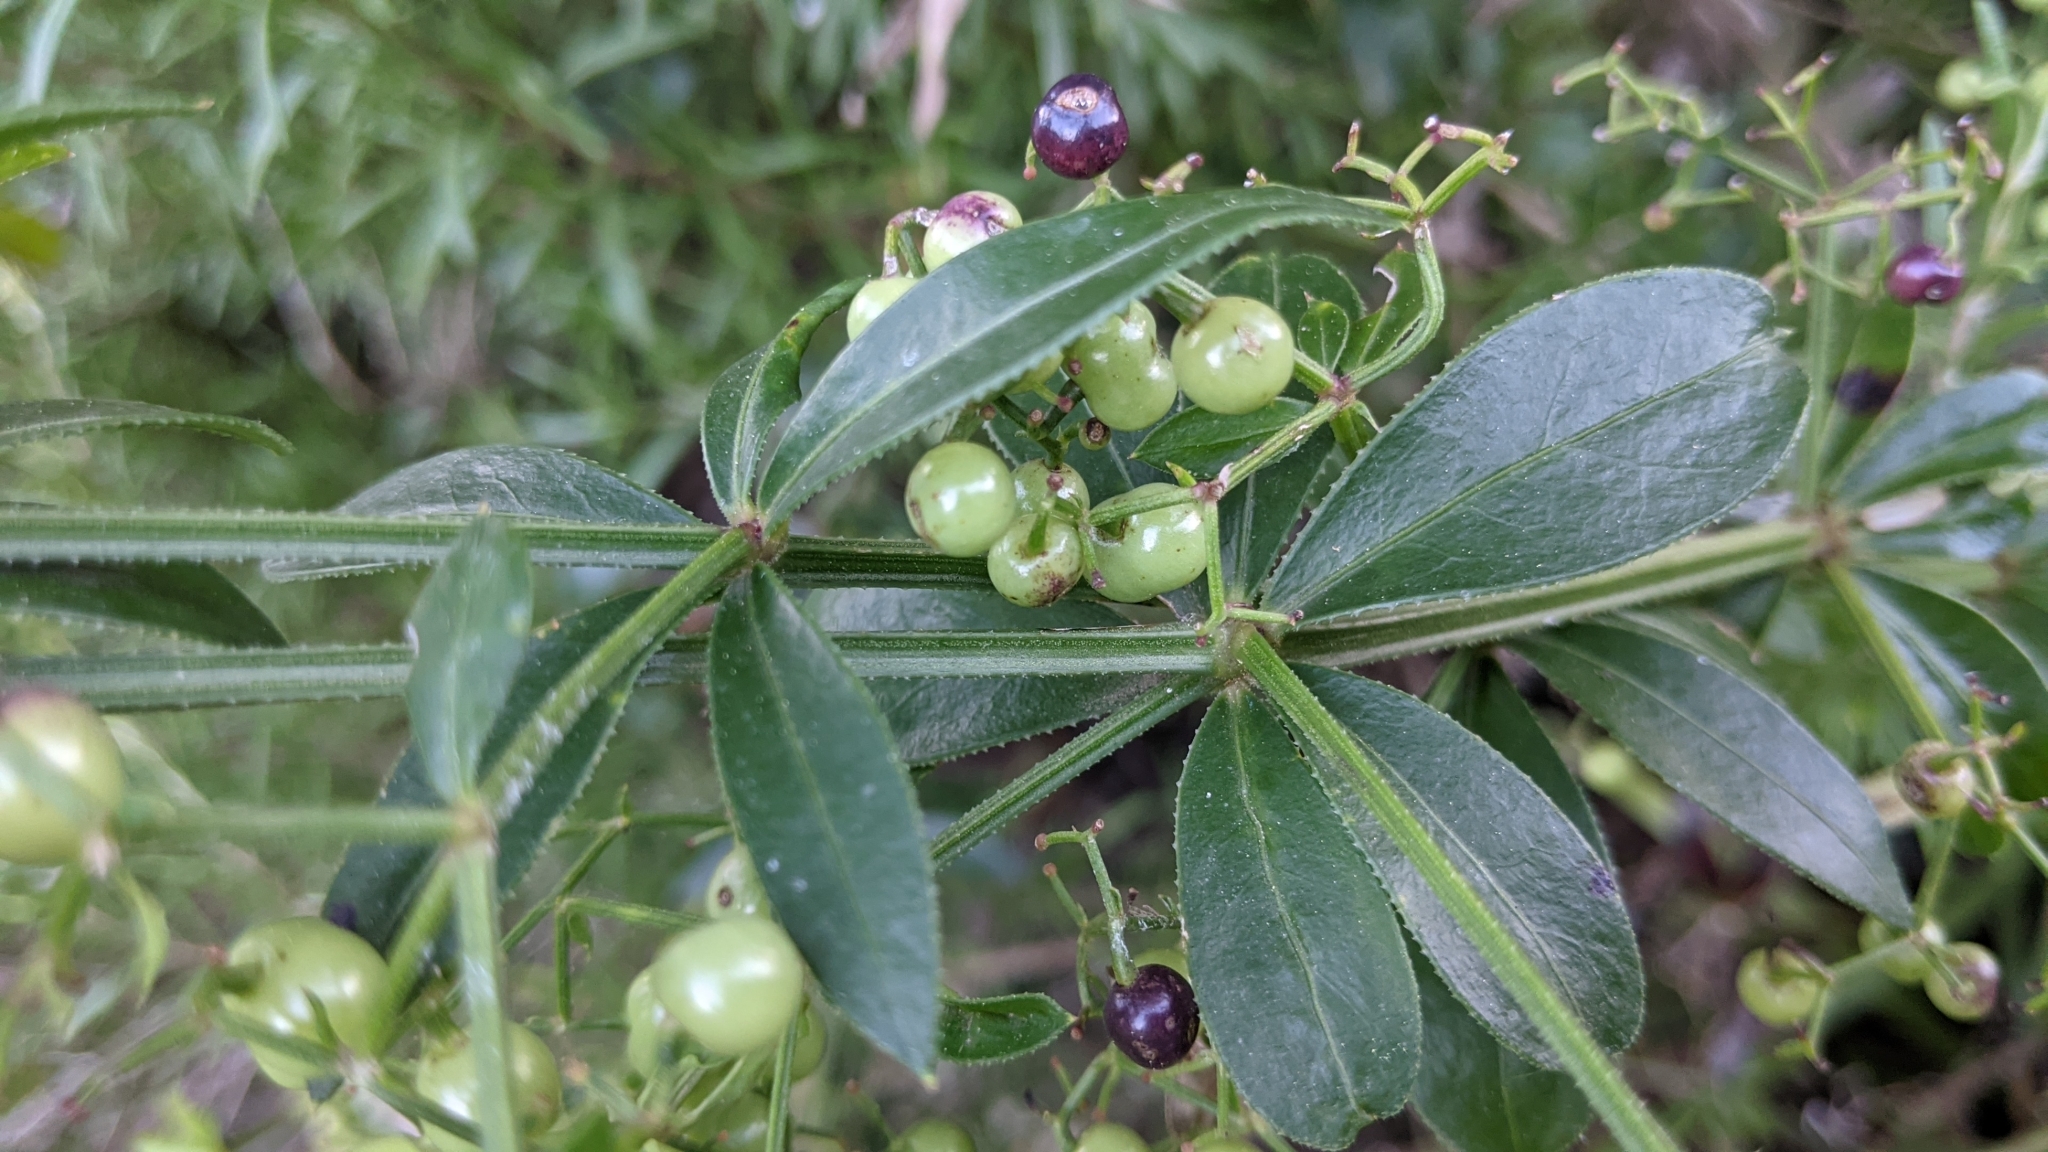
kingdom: Plantae
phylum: Tracheophyta
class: Magnoliopsida
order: Gentianales
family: Rubiaceae
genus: Rubia
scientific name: Rubia peregrina
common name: Wild madder
